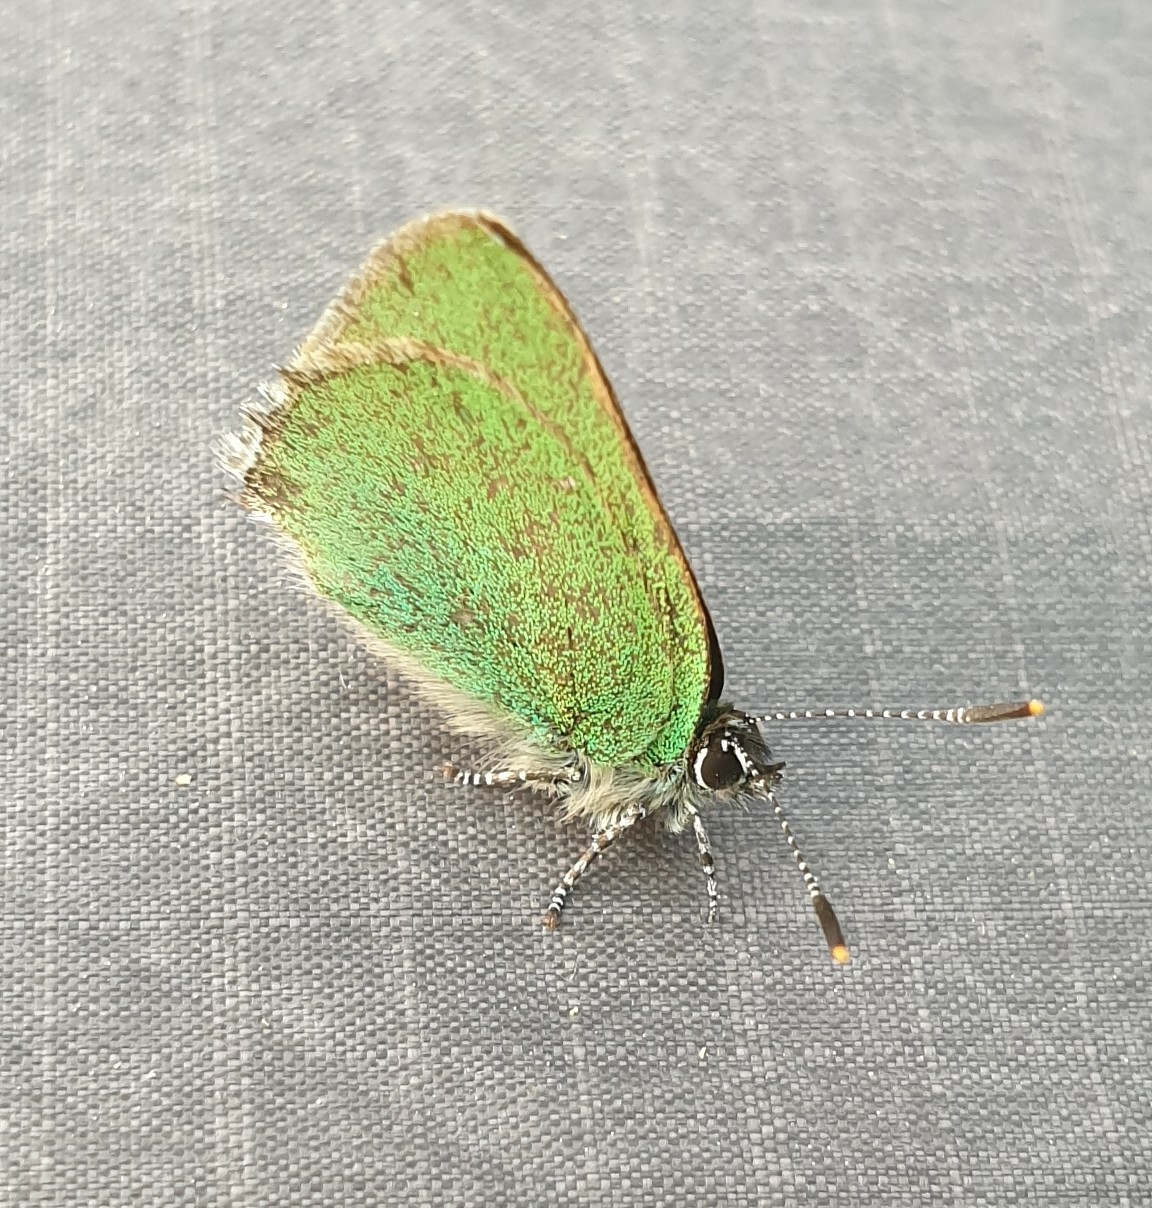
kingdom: Animalia
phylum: Arthropoda
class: Insecta
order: Lepidoptera
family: Lycaenidae
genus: Callophrys
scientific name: Callophrys rubi
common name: Green hairstreak
